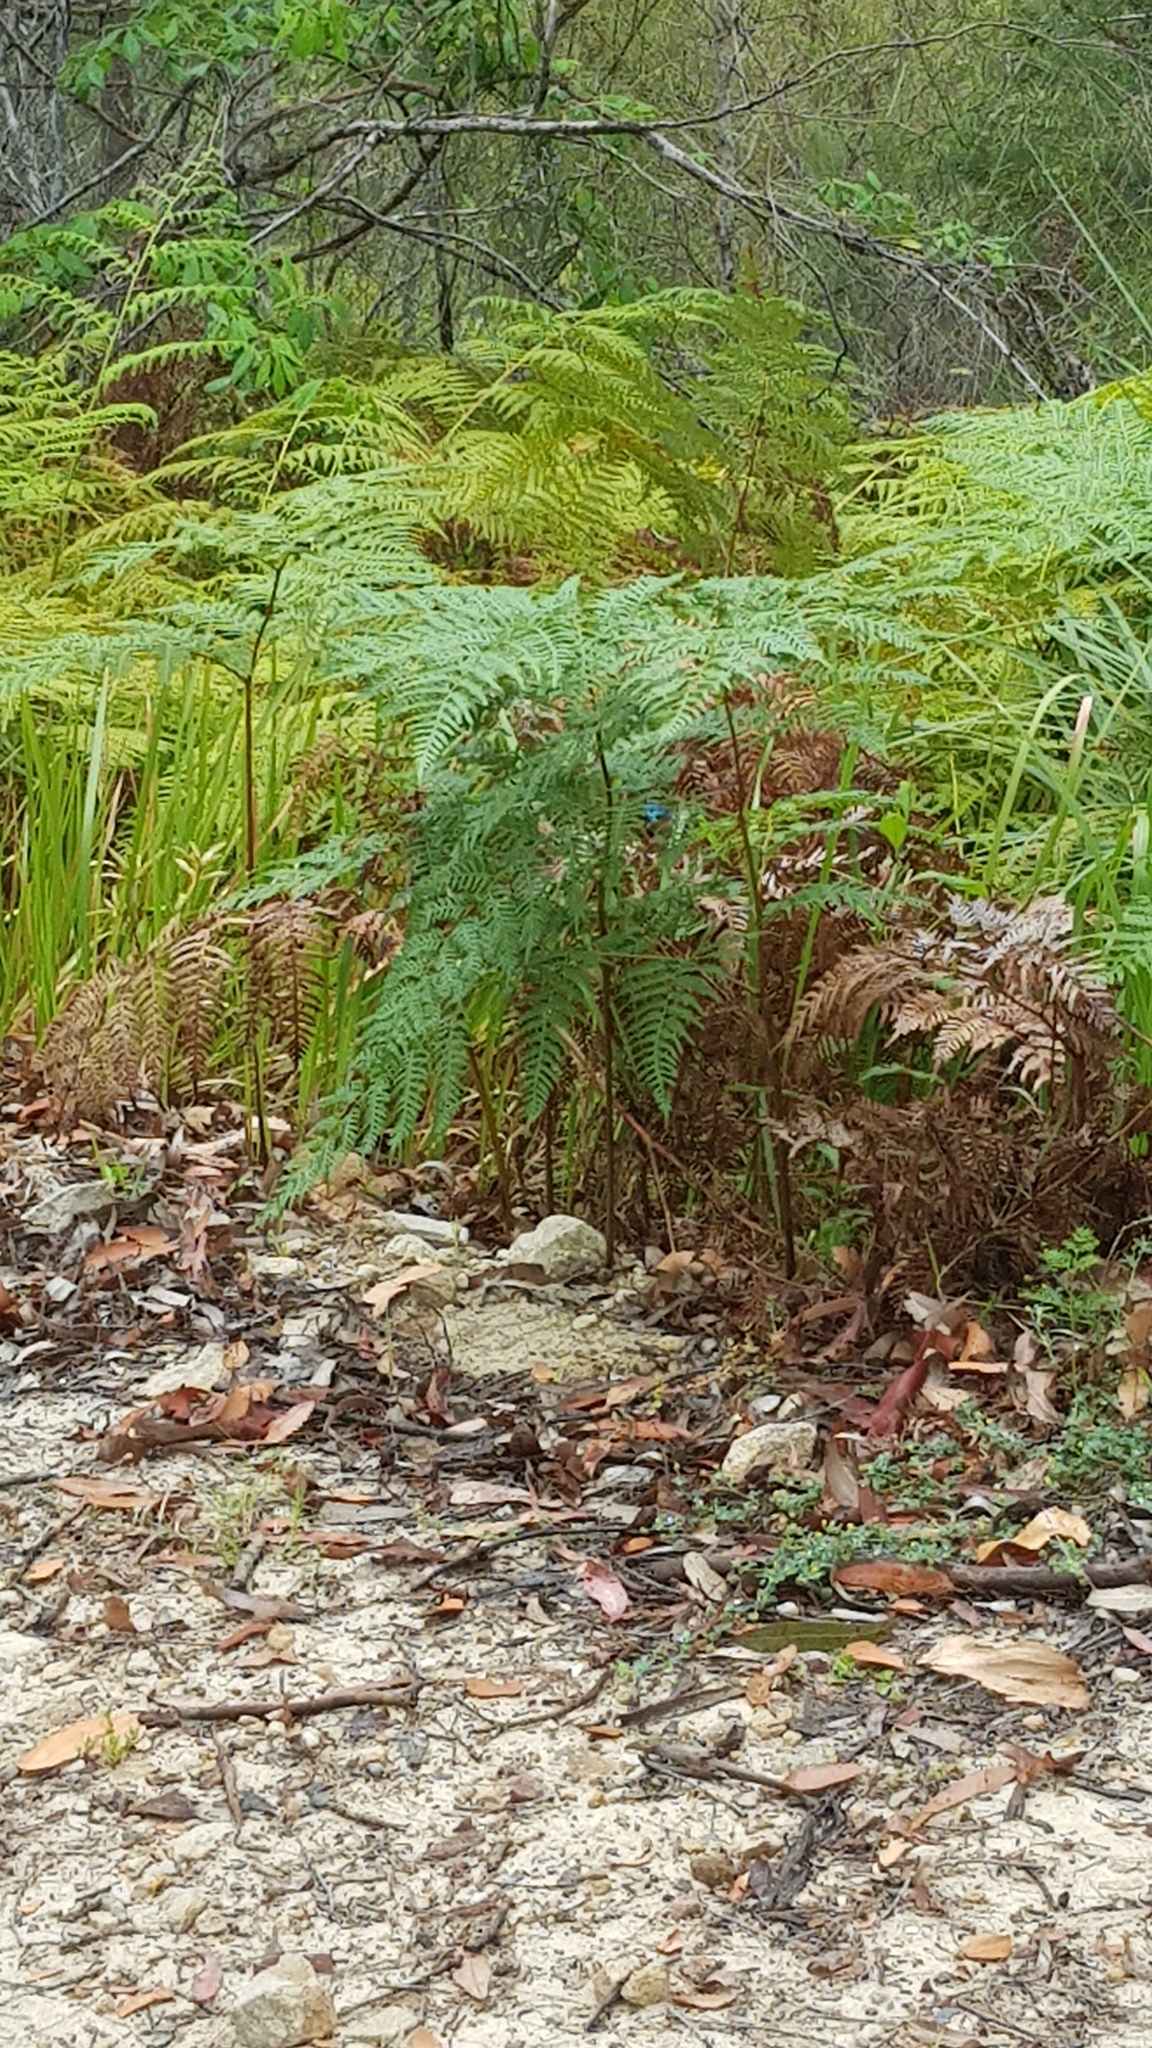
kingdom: Animalia
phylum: Chordata
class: Aves
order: Passeriformes
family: Maluridae
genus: Malurus
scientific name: Malurus lamberti
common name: Variegated fairywren
